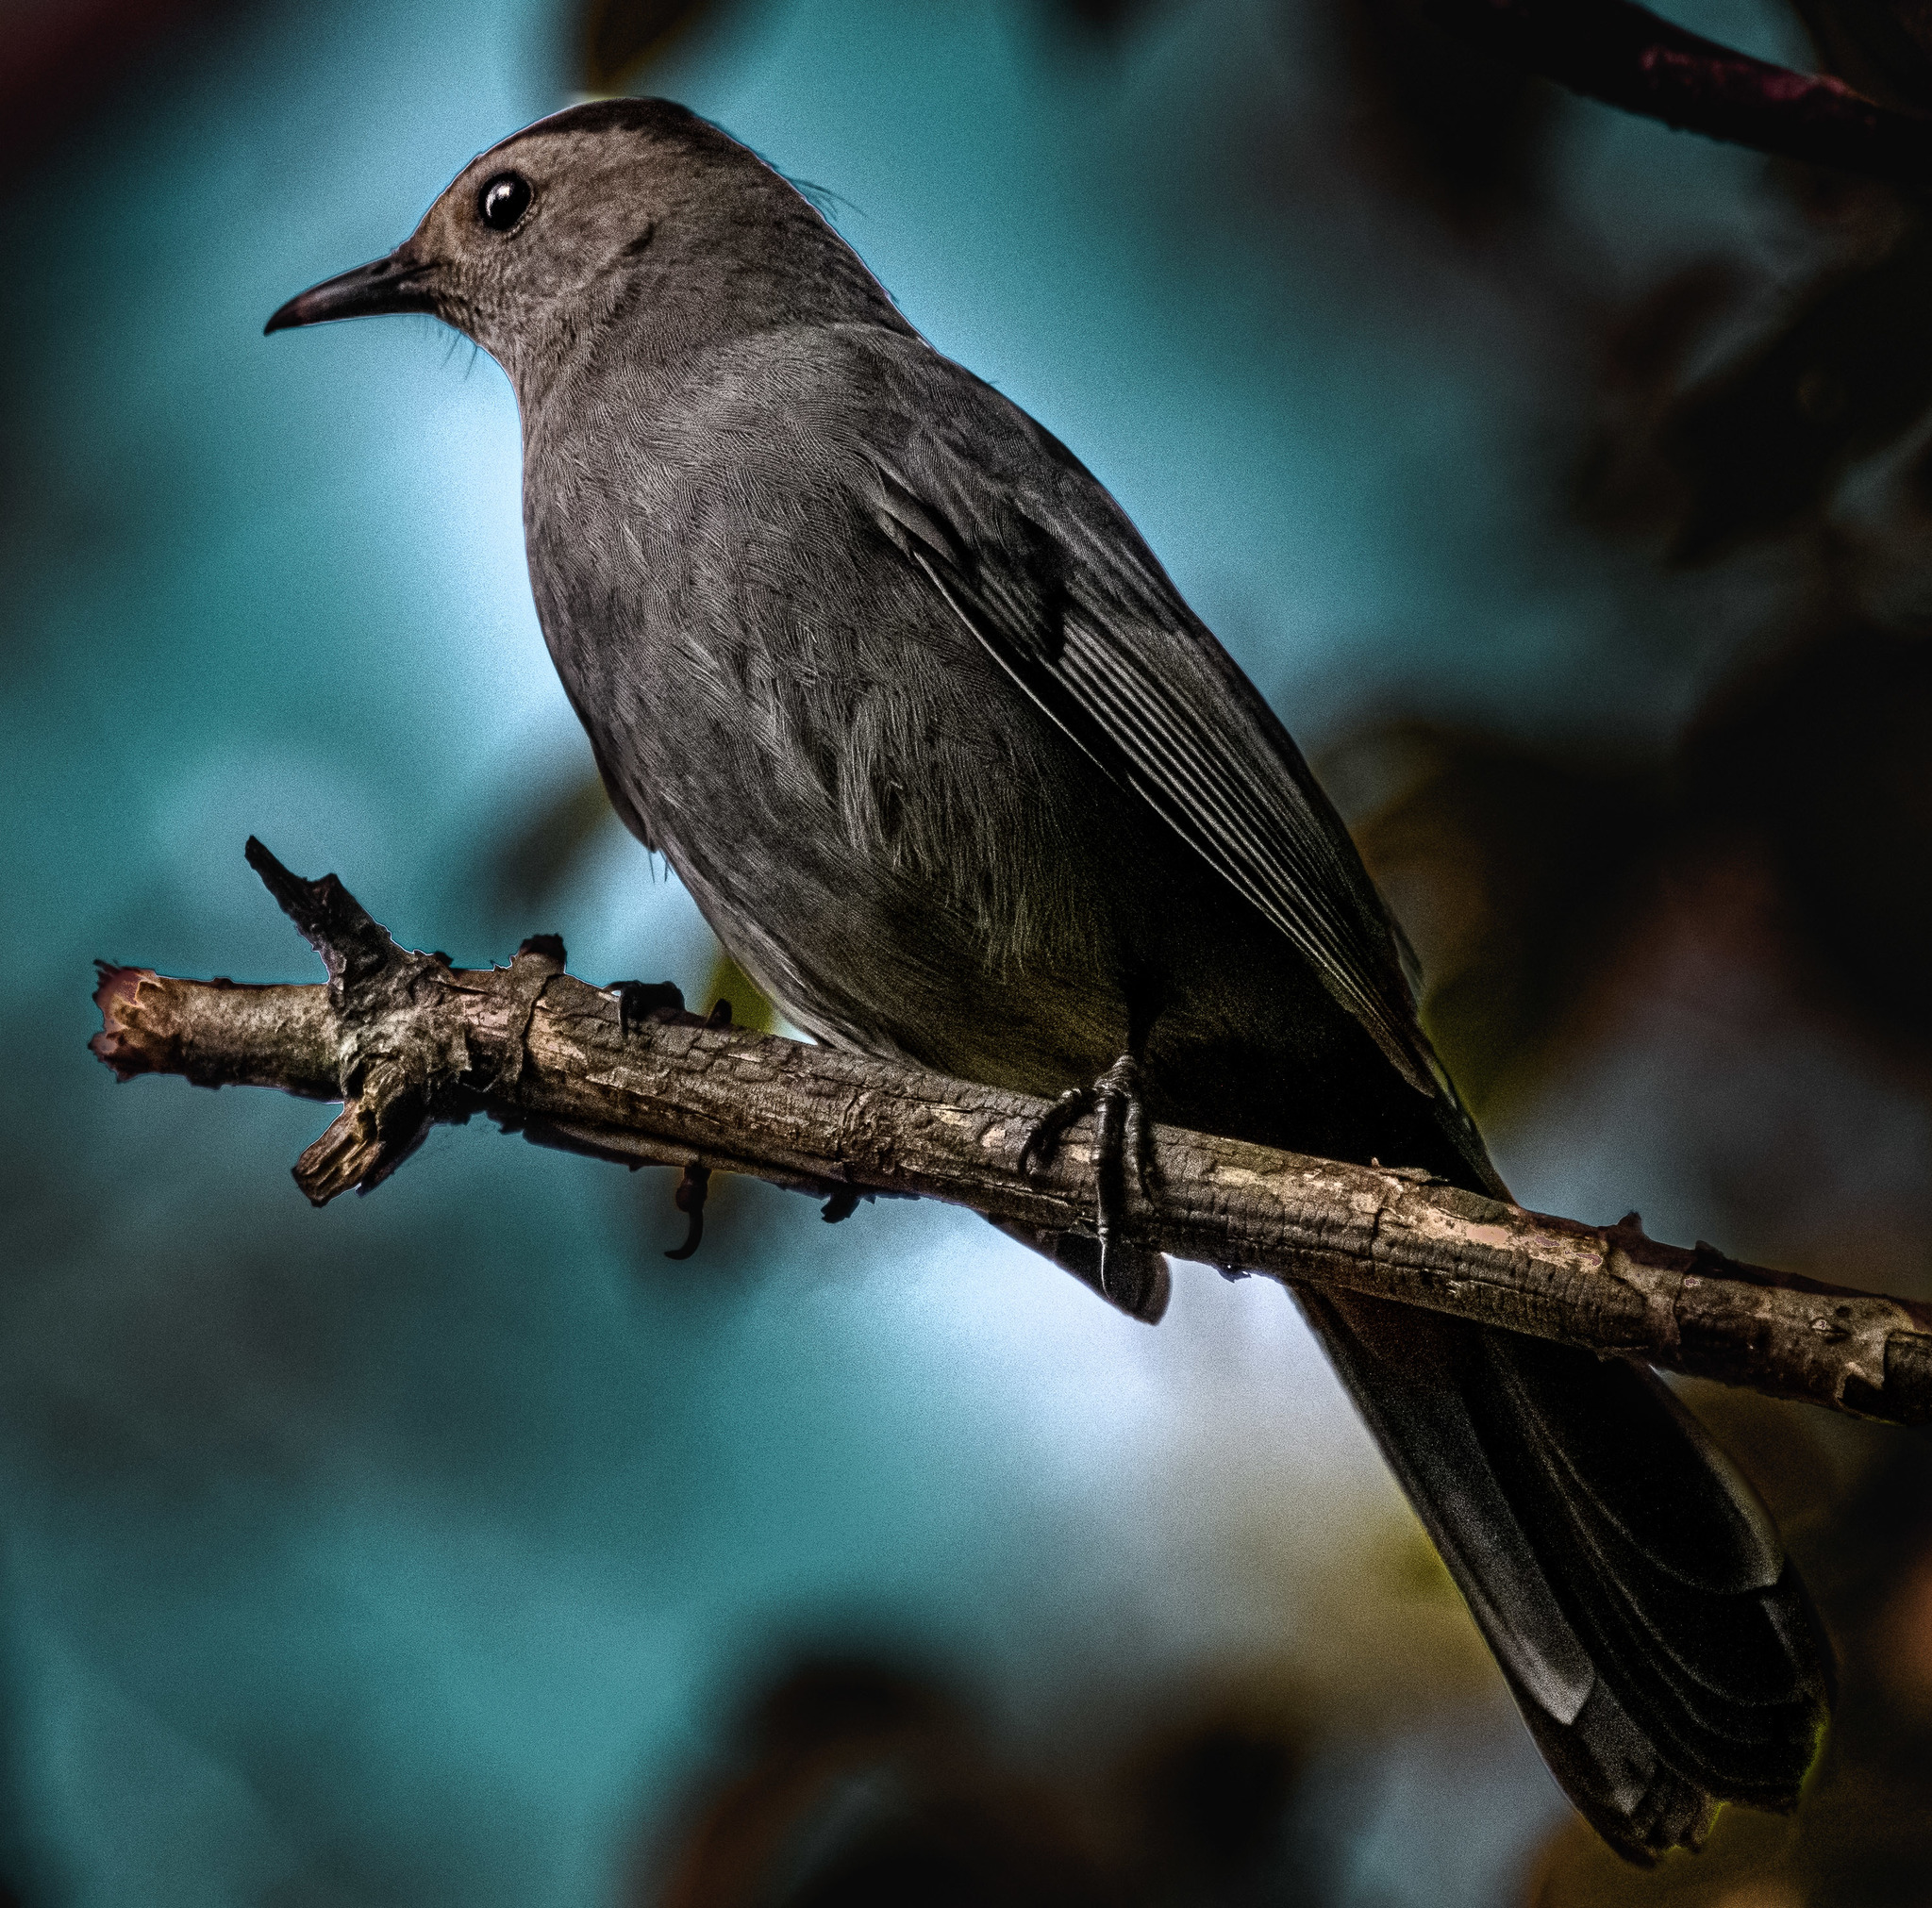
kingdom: Animalia
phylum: Chordata
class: Aves
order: Passeriformes
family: Mimidae
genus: Dumetella
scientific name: Dumetella carolinensis
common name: Gray catbird
